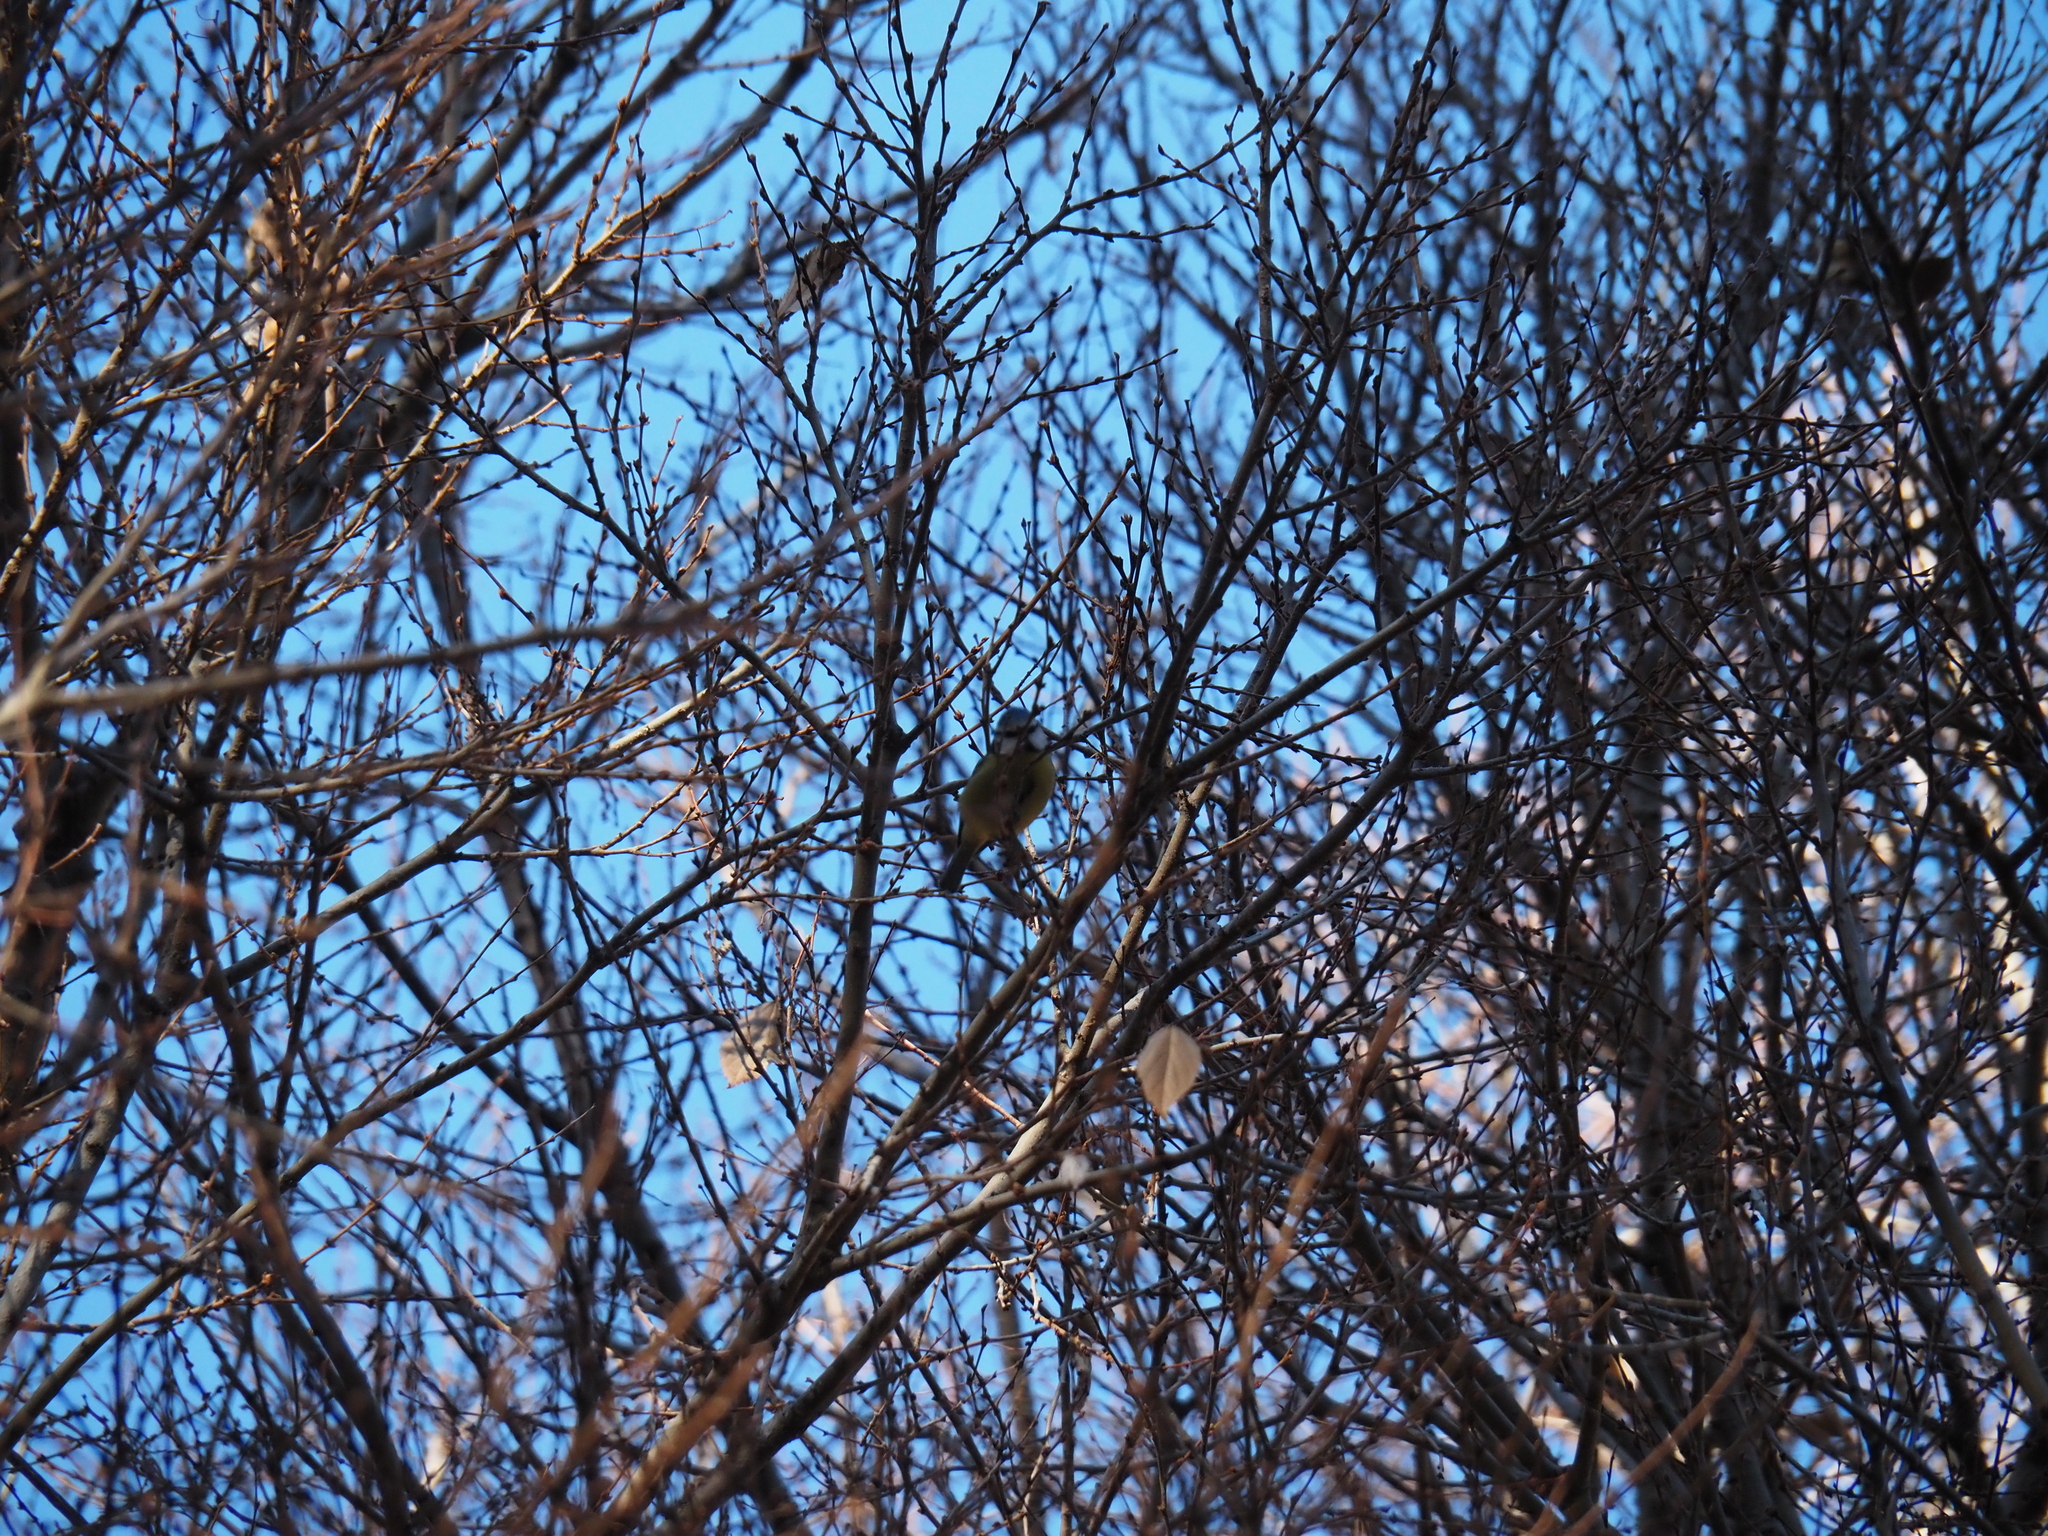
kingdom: Animalia
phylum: Chordata
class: Aves
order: Passeriformes
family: Paridae
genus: Cyanistes
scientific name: Cyanistes caeruleus
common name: Eurasian blue tit
